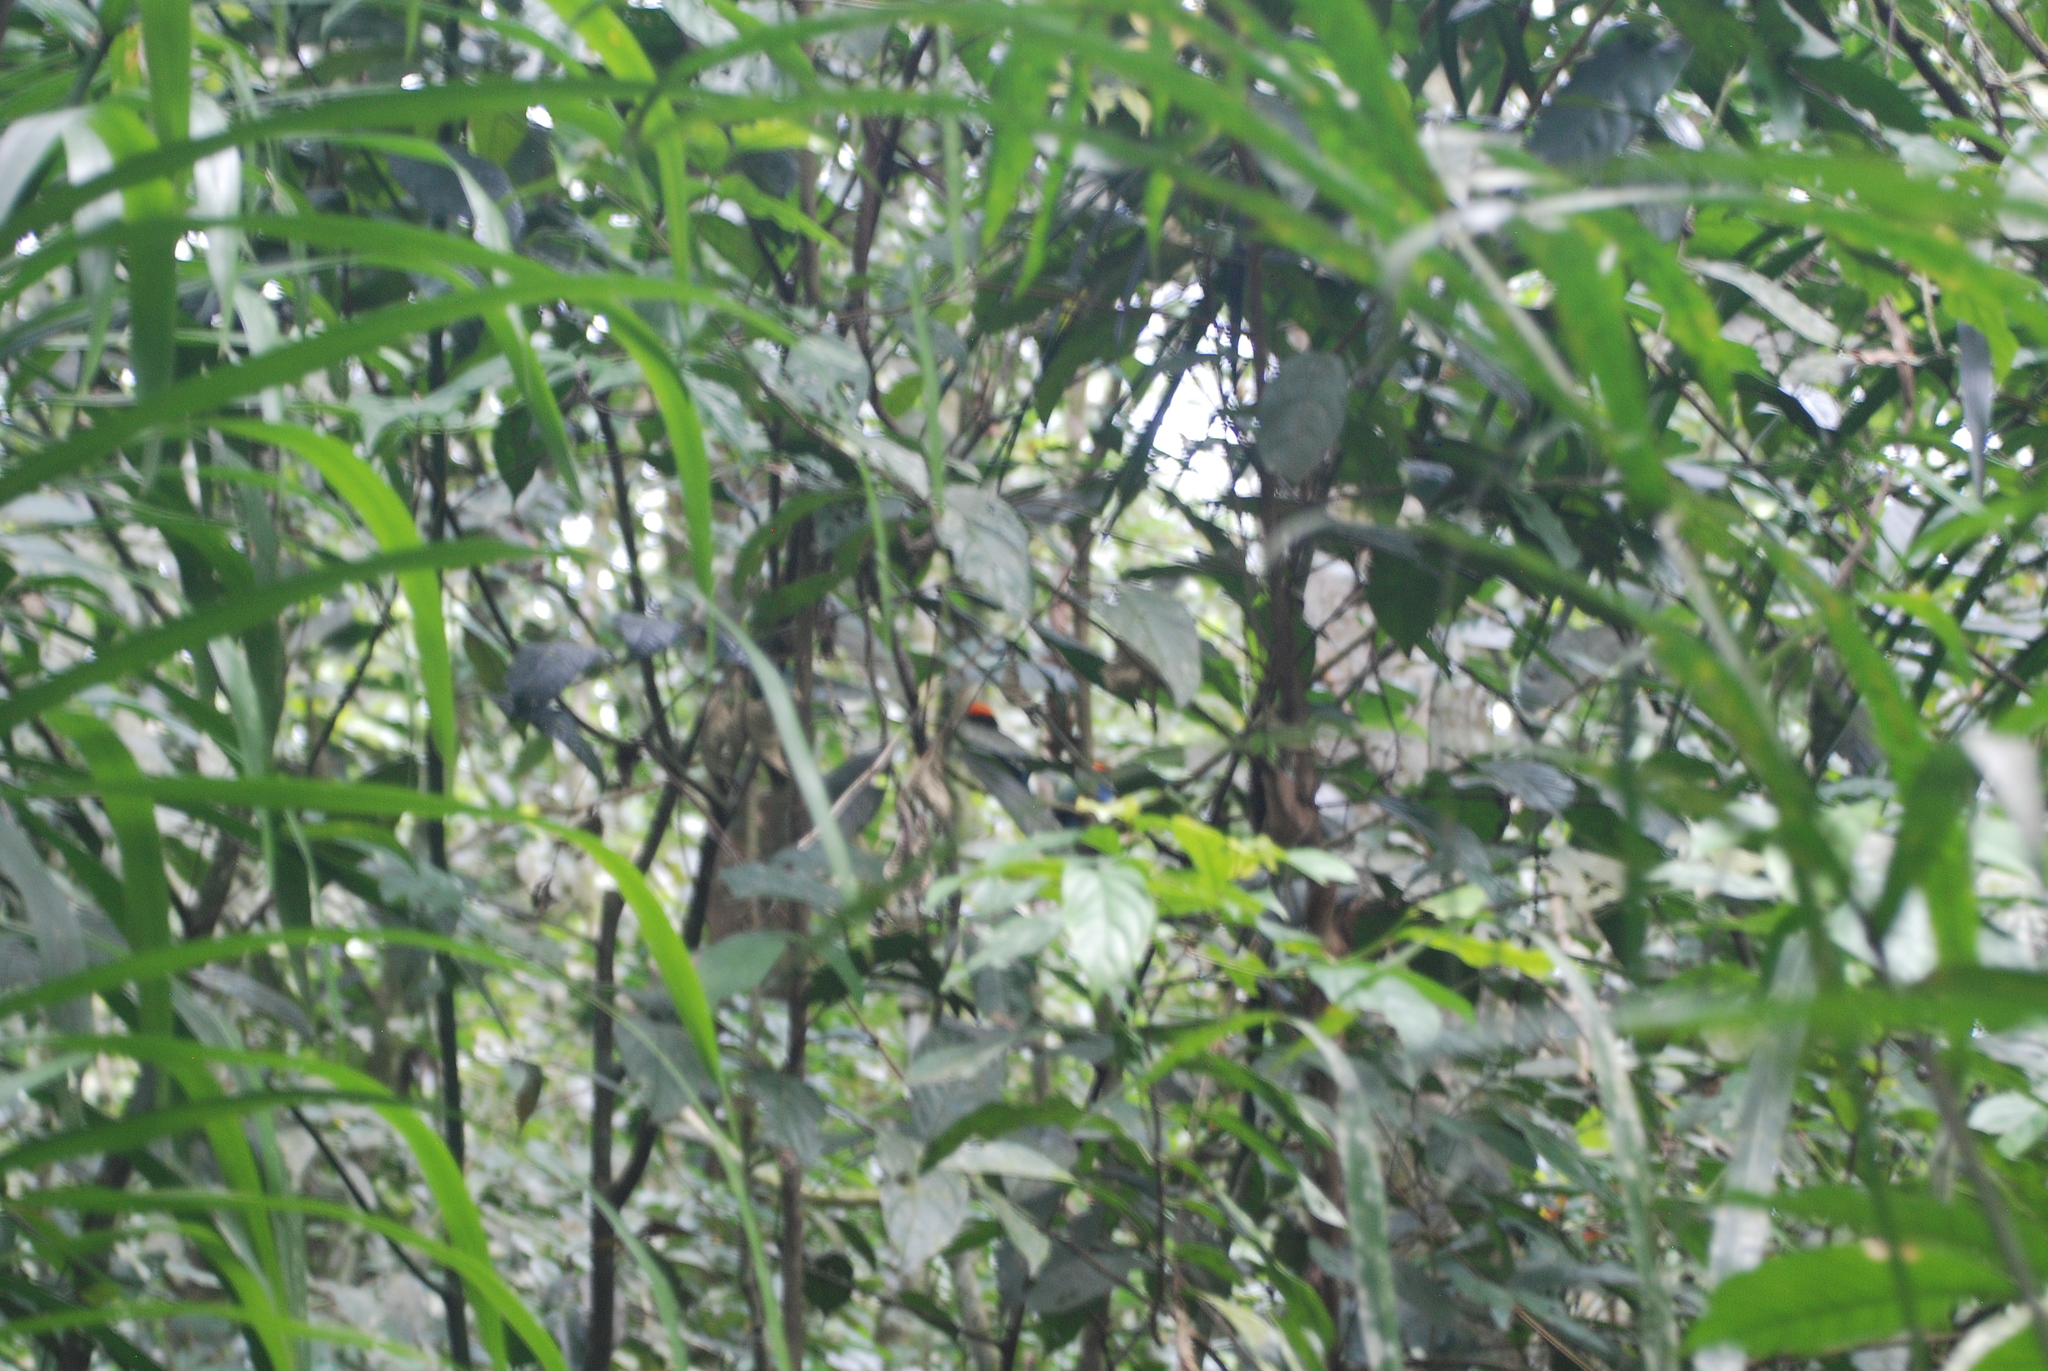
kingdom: Animalia
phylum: Chordata
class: Aves
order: Passeriformes
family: Pipridae
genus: Chiroxiphia
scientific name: Chiroxiphia caudata
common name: Blue manakin
